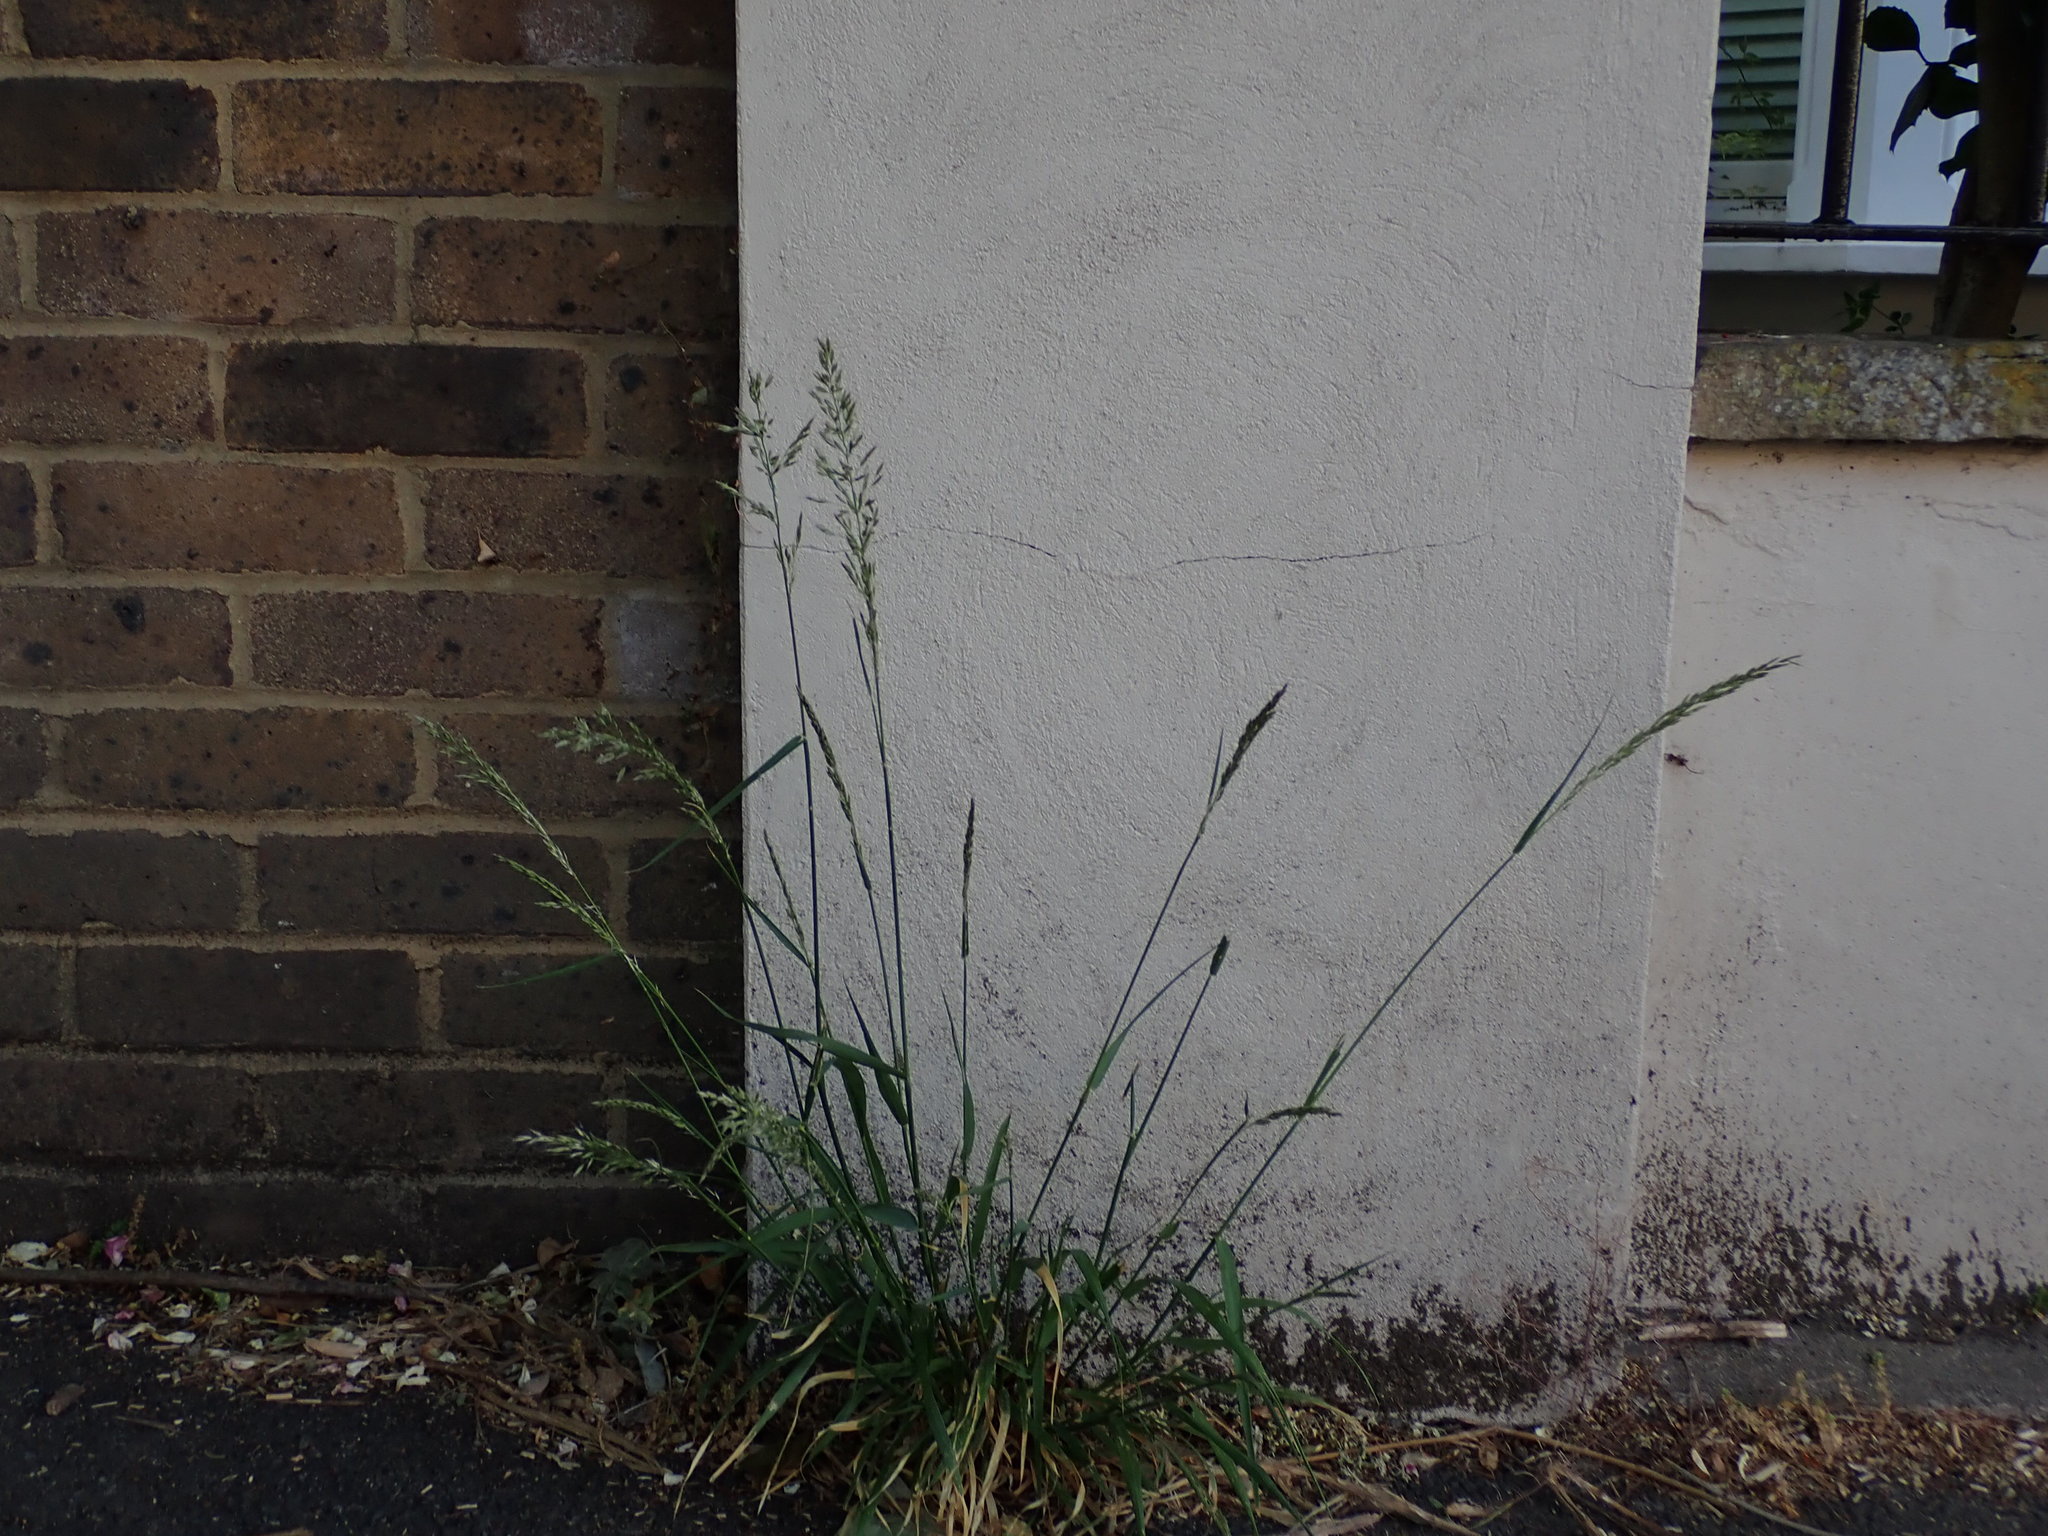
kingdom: Plantae
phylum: Tracheophyta
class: Liliopsida
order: Poales
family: Poaceae
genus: Arrhenatherum
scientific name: Arrhenatherum elatius
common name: Tall oatgrass
